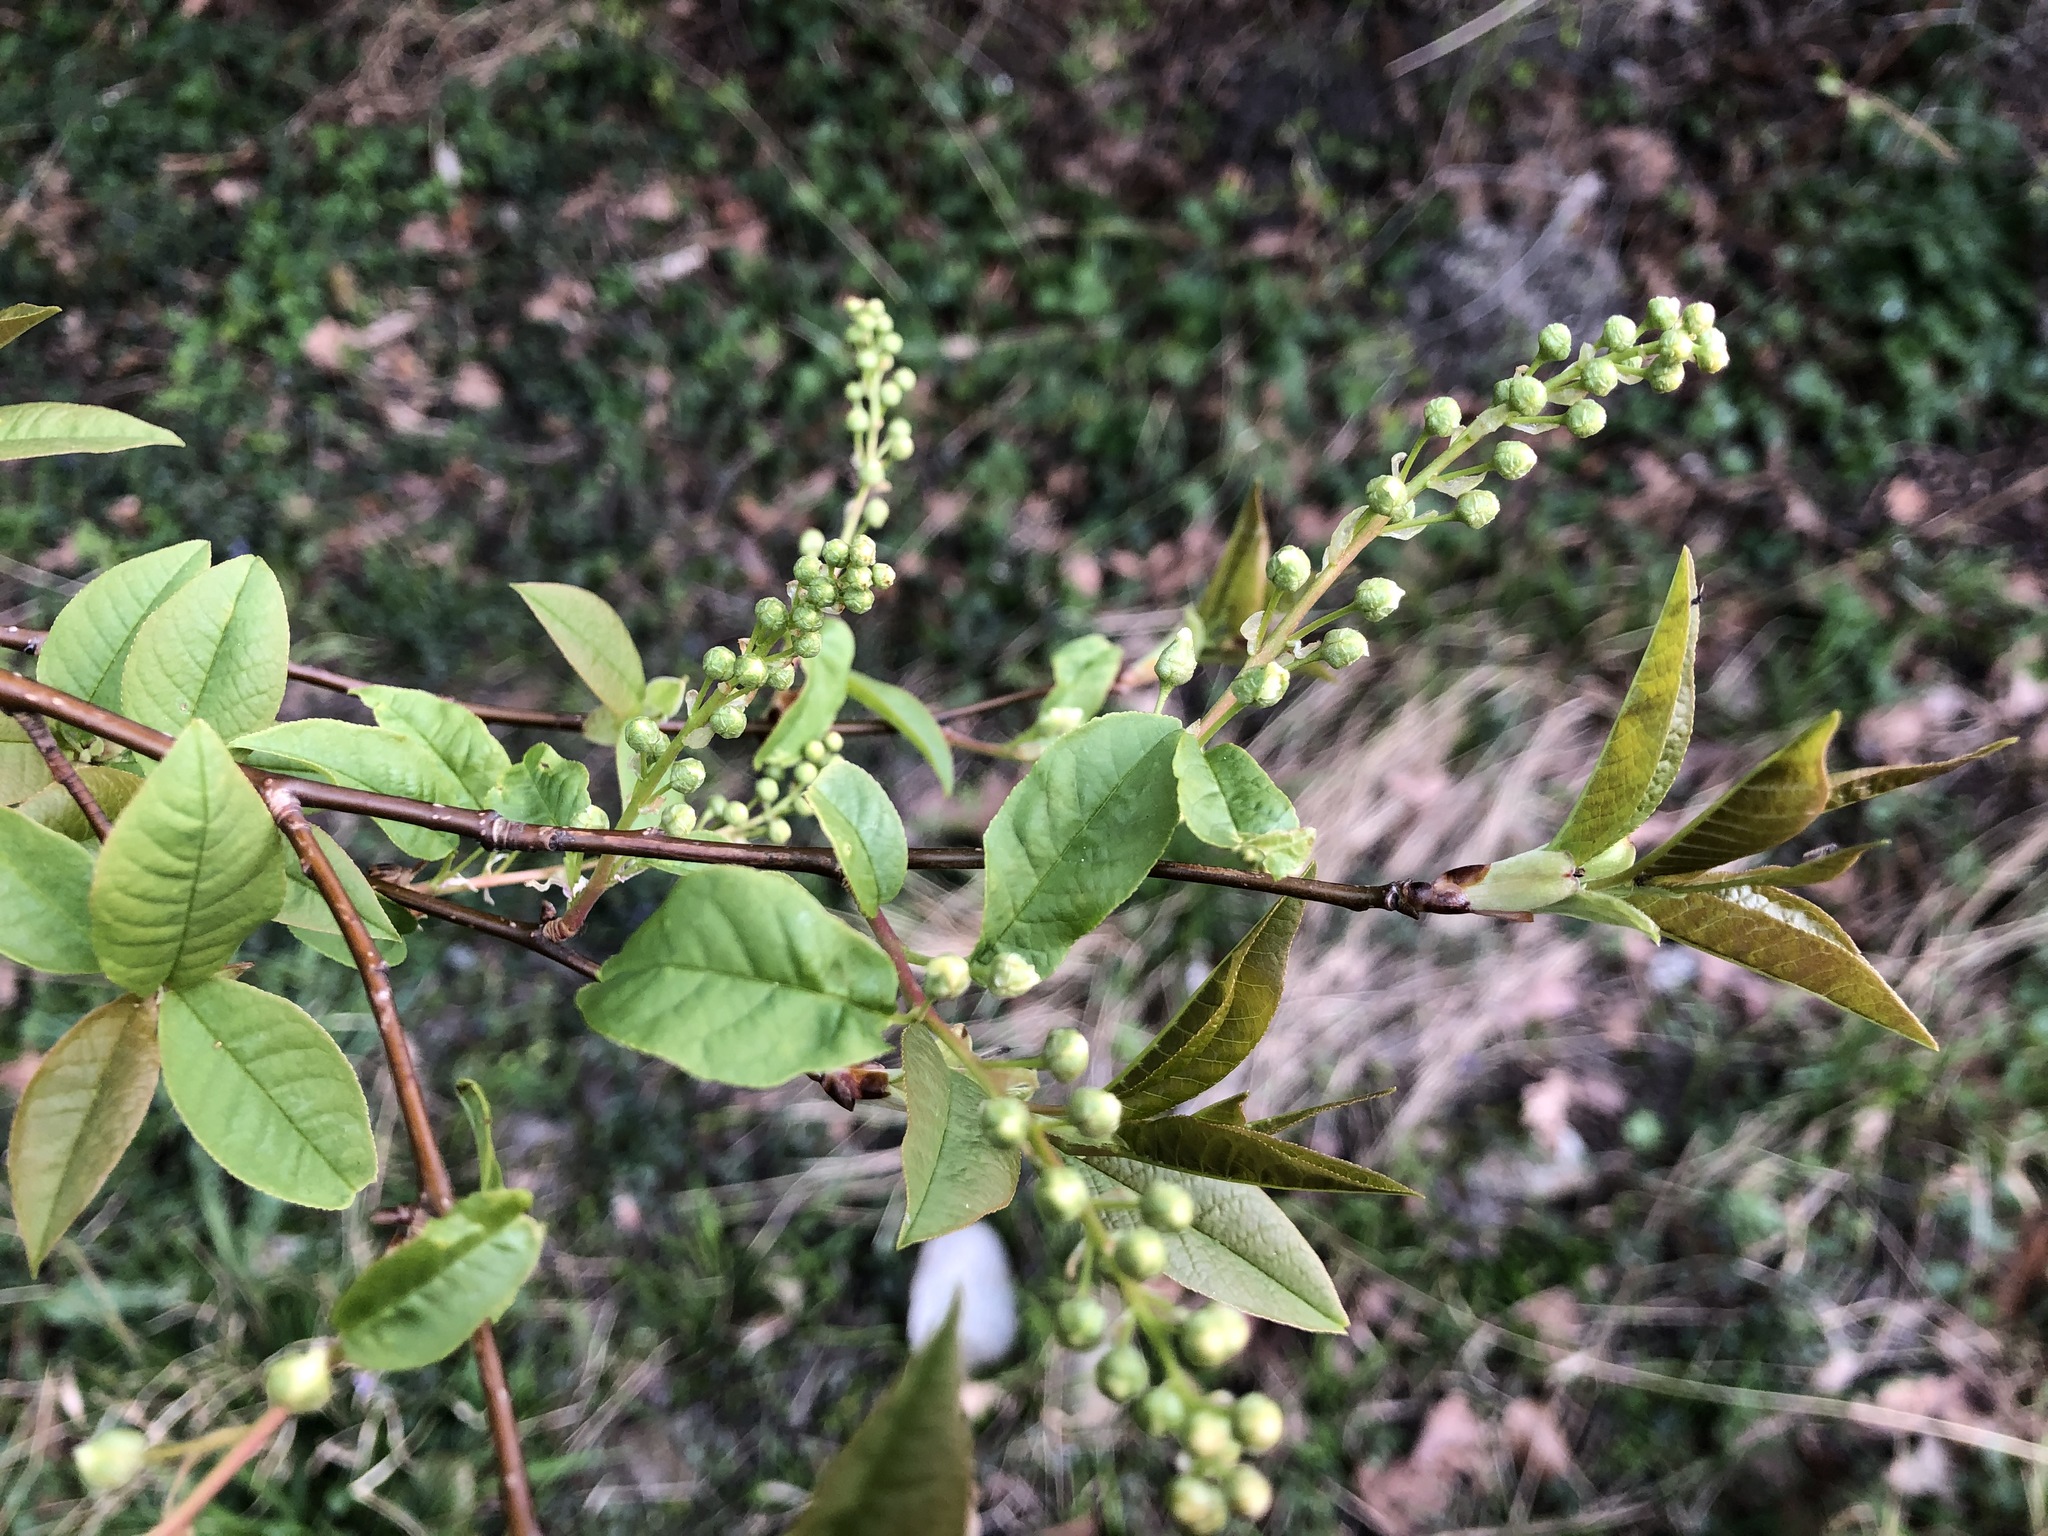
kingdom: Plantae
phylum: Tracheophyta
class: Magnoliopsida
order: Rosales
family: Rosaceae
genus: Prunus
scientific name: Prunus padus
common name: Bird cherry
